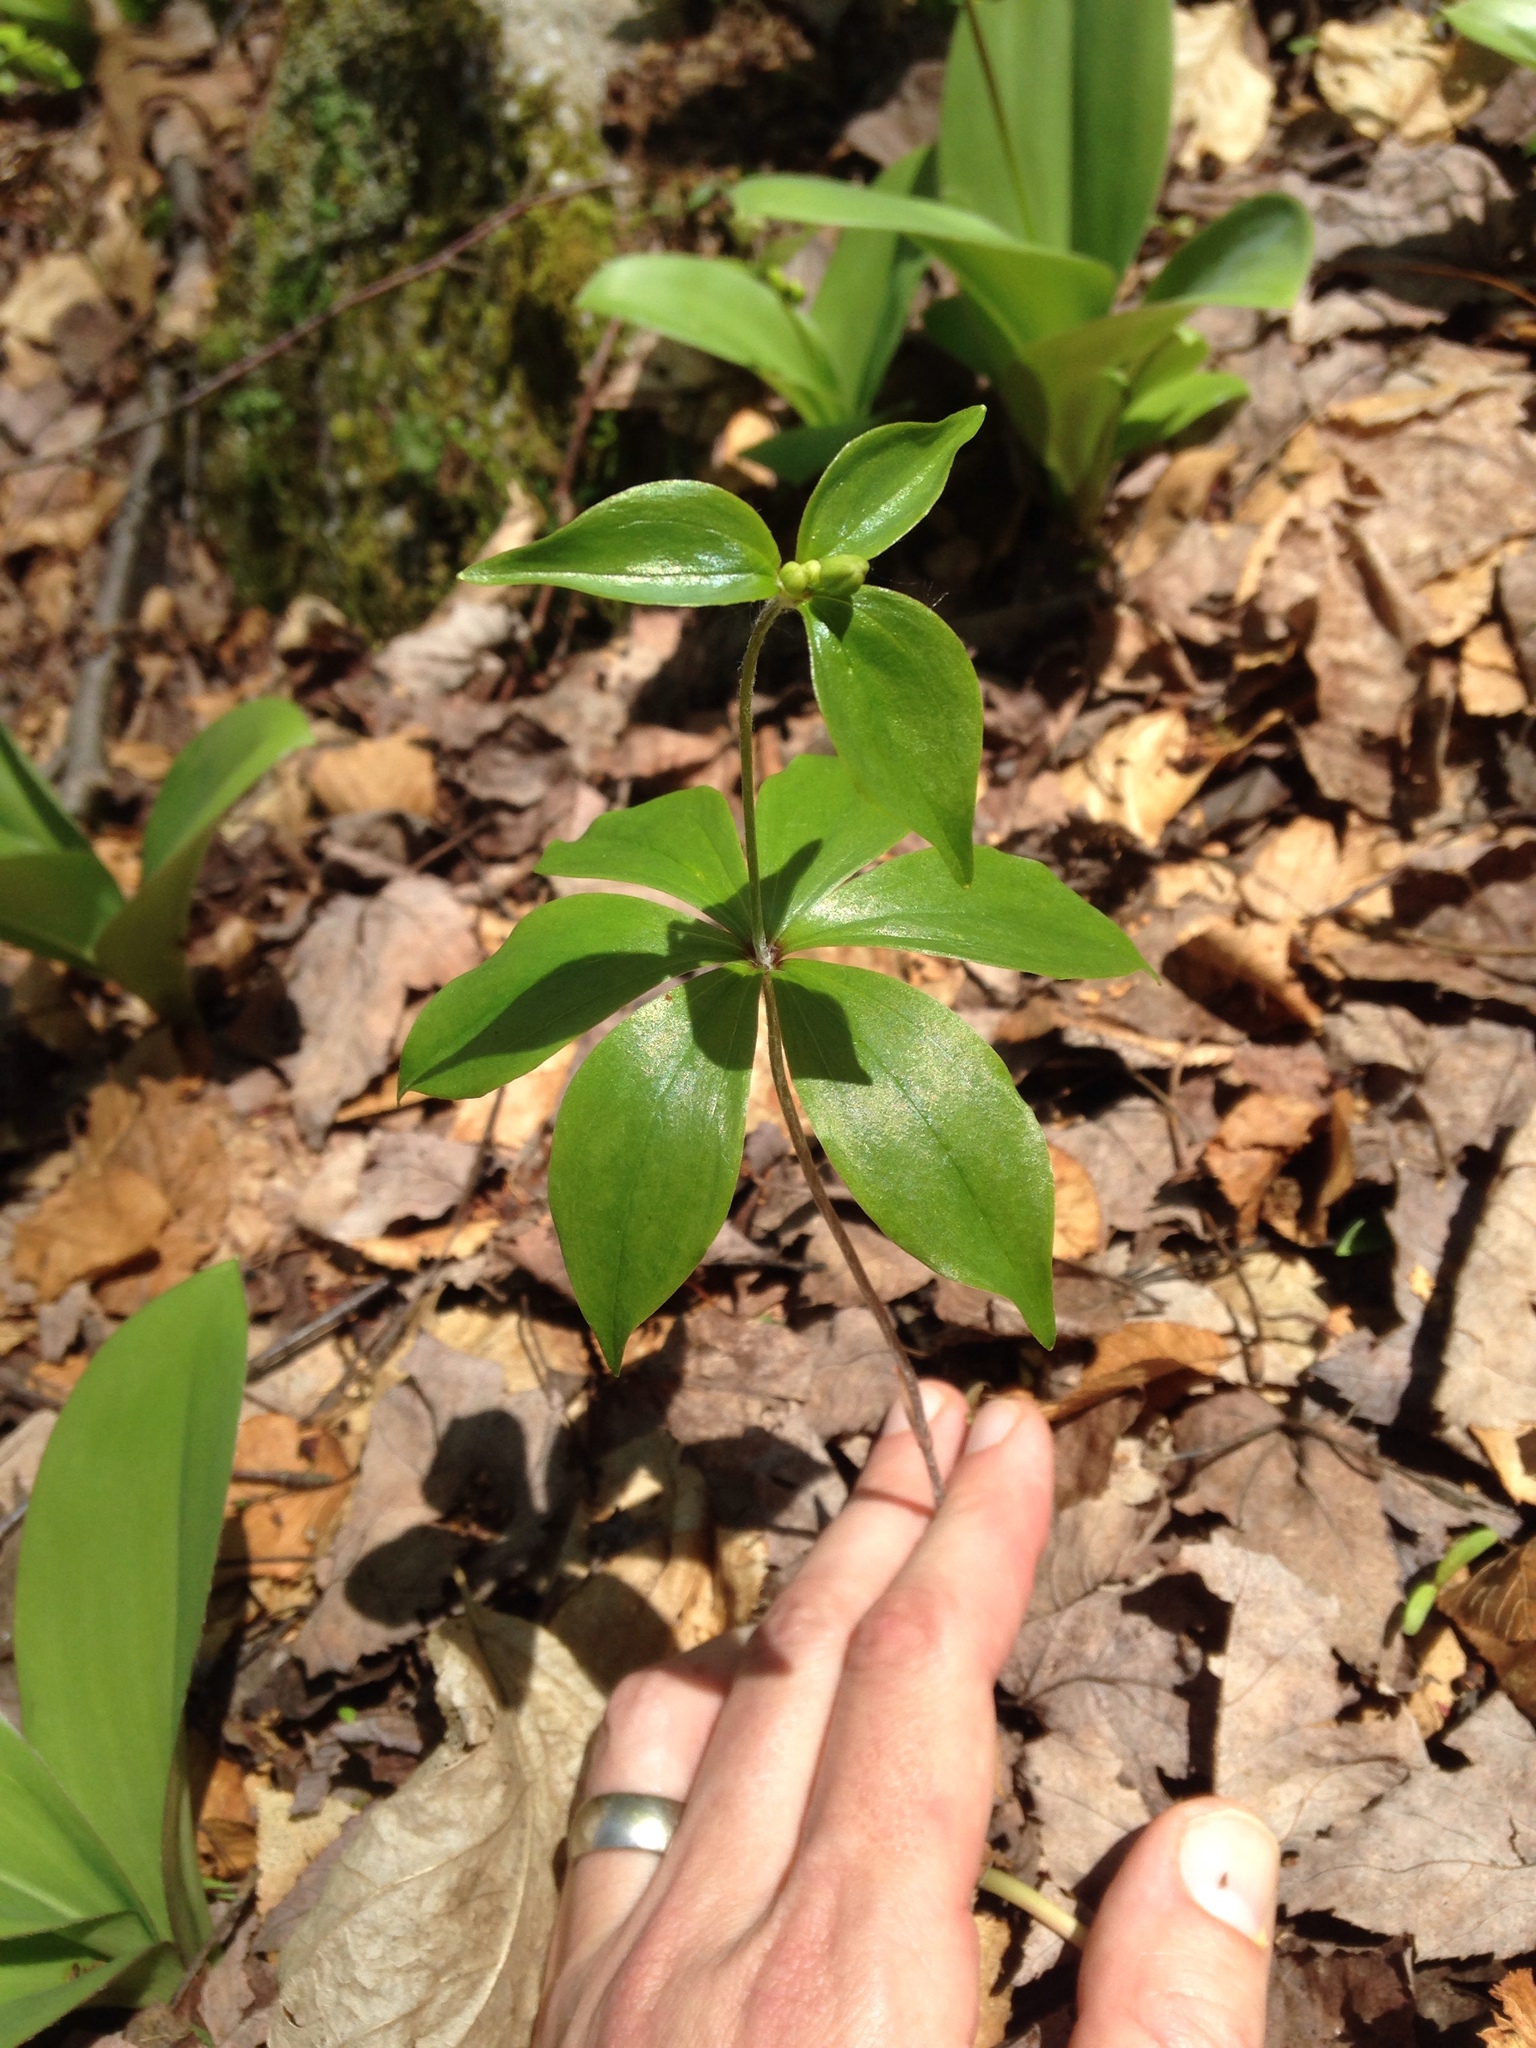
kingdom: Plantae
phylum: Tracheophyta
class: Liliopsida
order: Liliales
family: Liliaceae
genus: Medeola
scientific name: Medeola virginiana
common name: Indian cucumber-root
